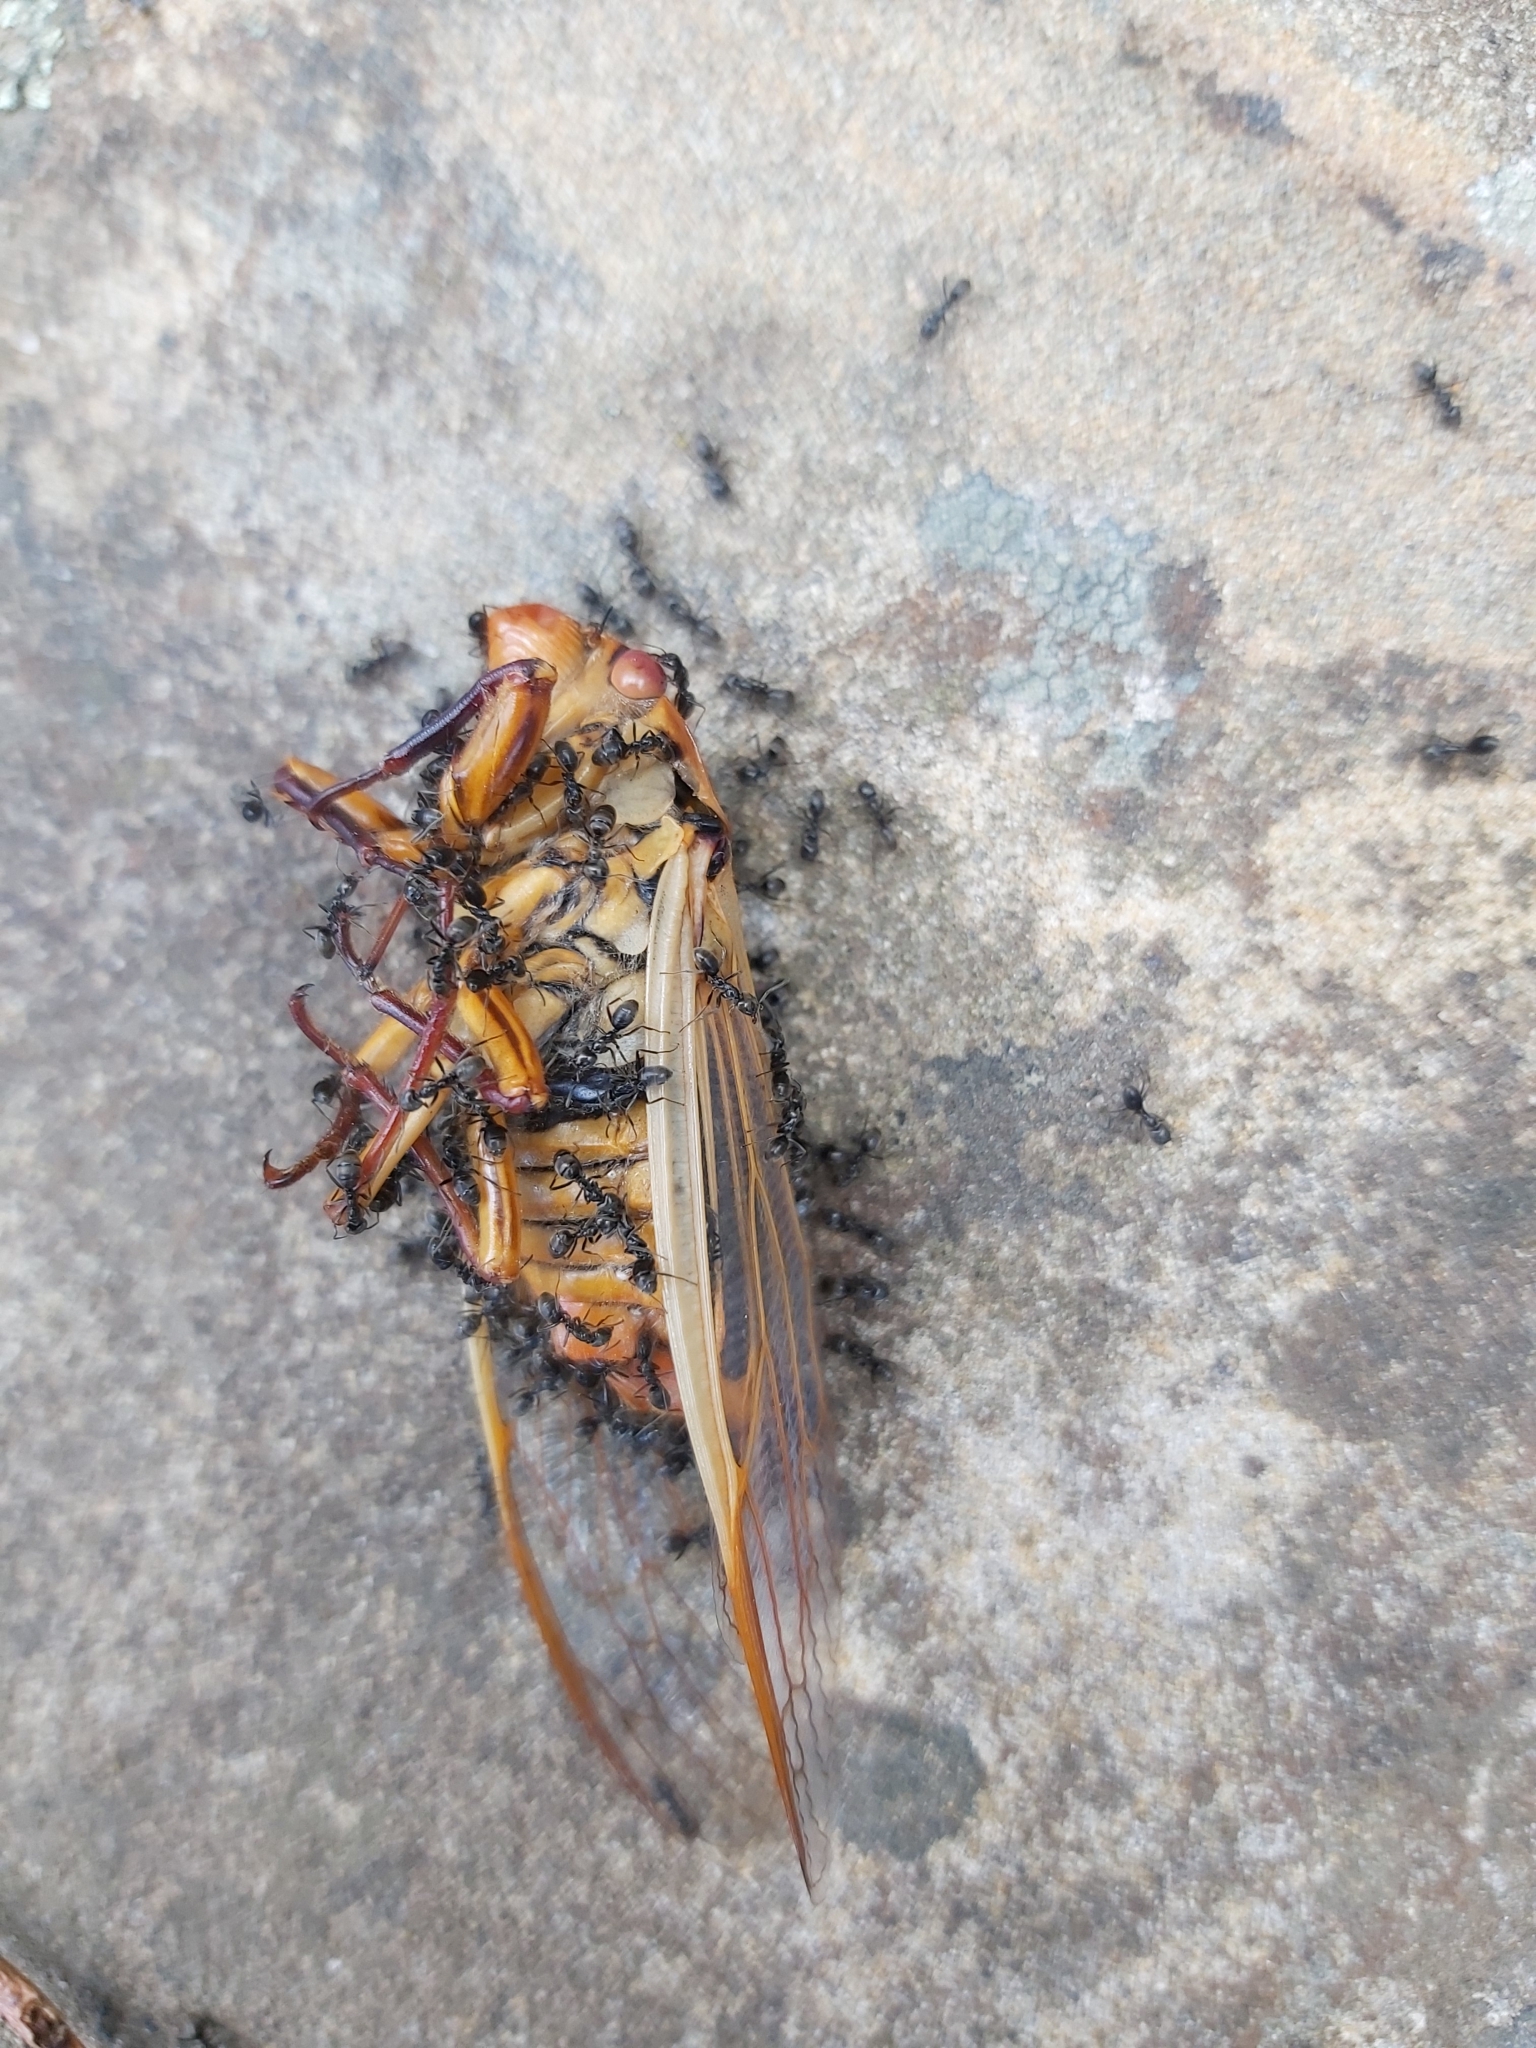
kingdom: Animalia
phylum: Arthropoda
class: Insecta
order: Hemiptera
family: Cicadidae
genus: Cyclochila
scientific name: Cyclochila australasiae
